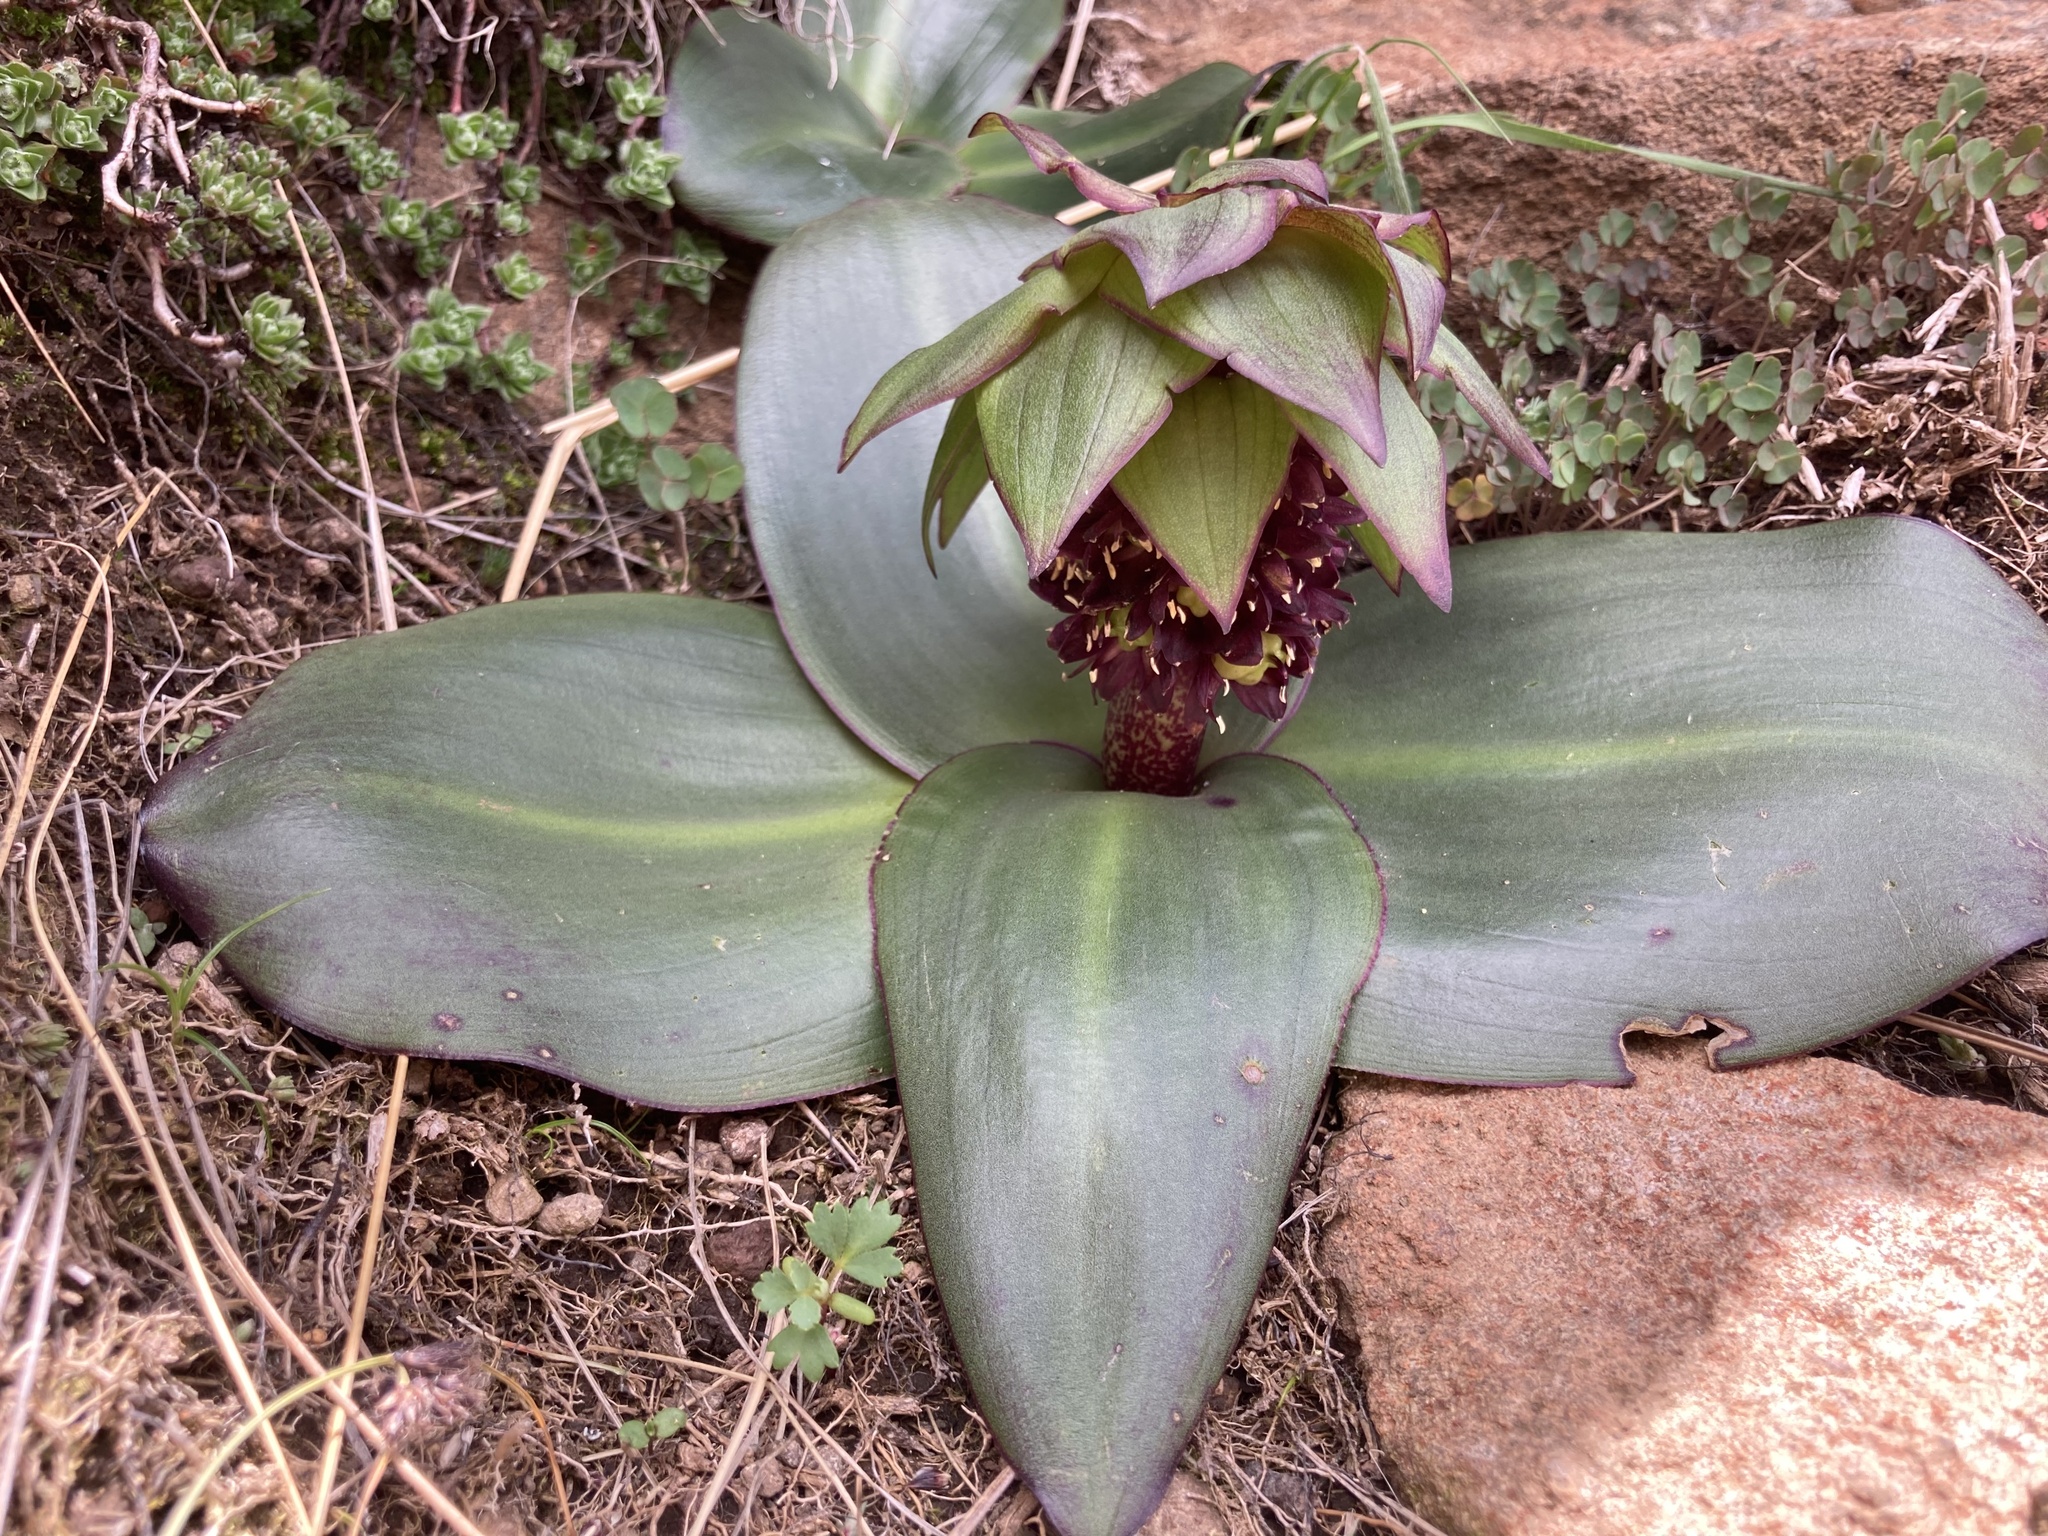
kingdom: Plantae
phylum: Tracheophyta
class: Liliopsida
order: Asparagales
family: Asparagaceae
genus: Eucomis
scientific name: Eucomis schijffii
